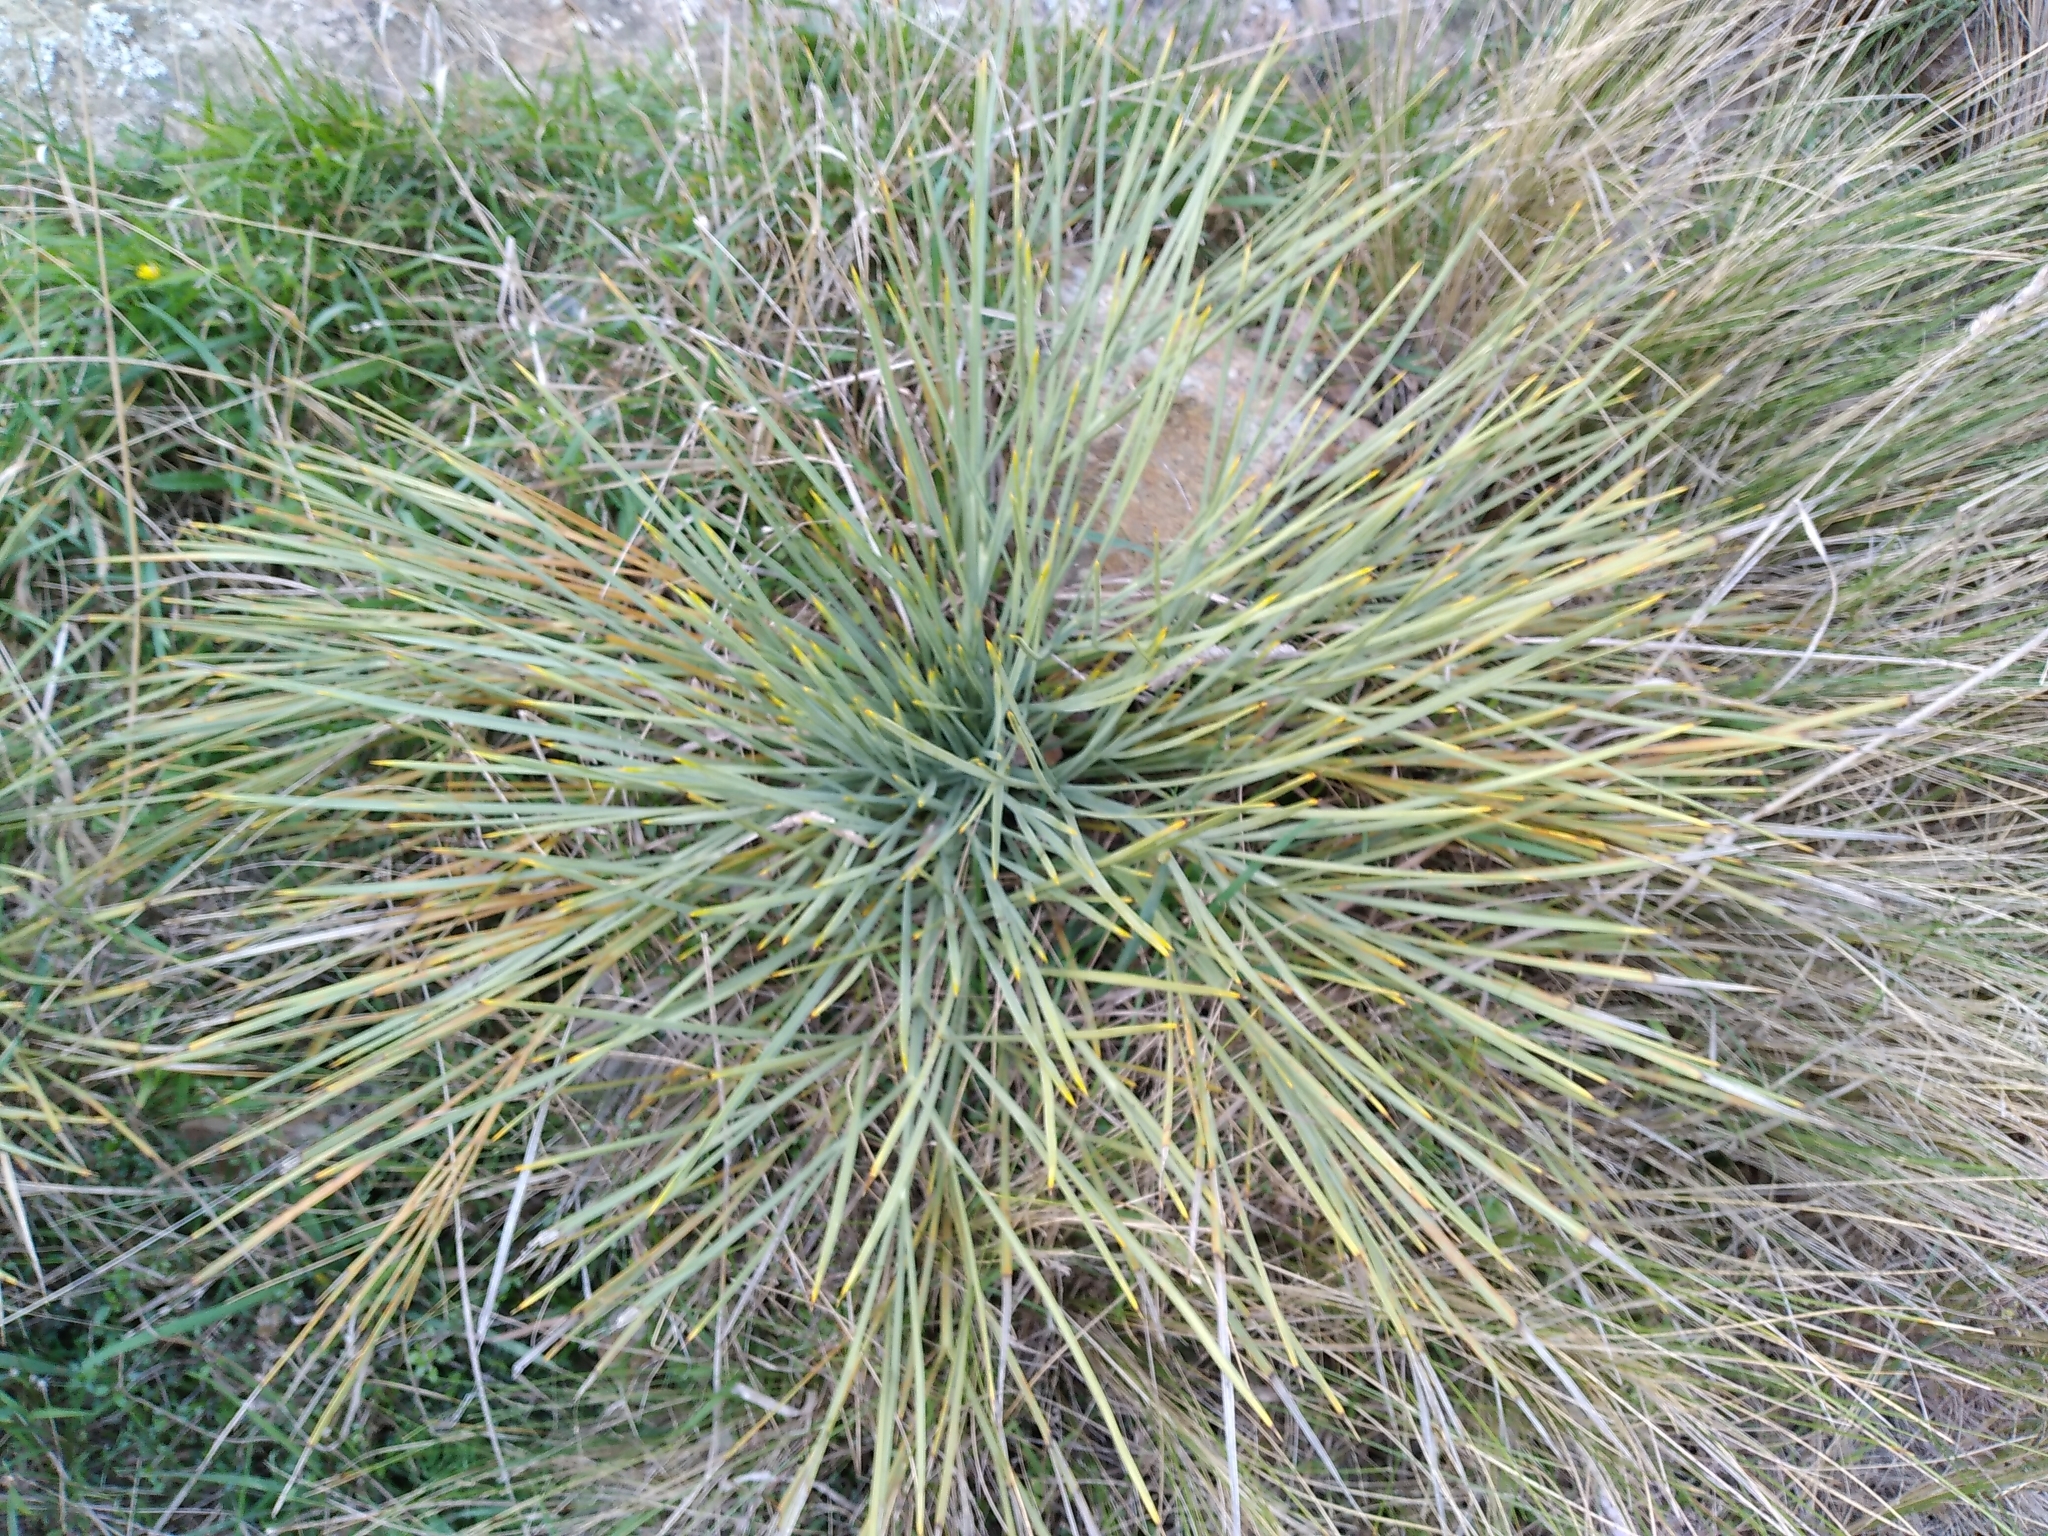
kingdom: Plantae
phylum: Tracheophyta
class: Magnoliopsida
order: Apiales
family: Apiaceae
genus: Aciphylla
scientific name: Aciphylla squarrosa
